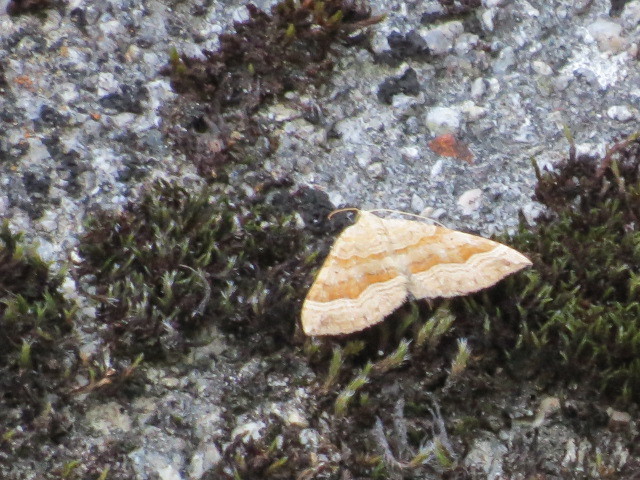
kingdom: Animalia
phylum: Arthropoda
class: Insecta
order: Lepidoptera
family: Geometridae
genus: Scotopteryx
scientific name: Scotopteryx chenopodiata
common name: Shaded broad-bar
